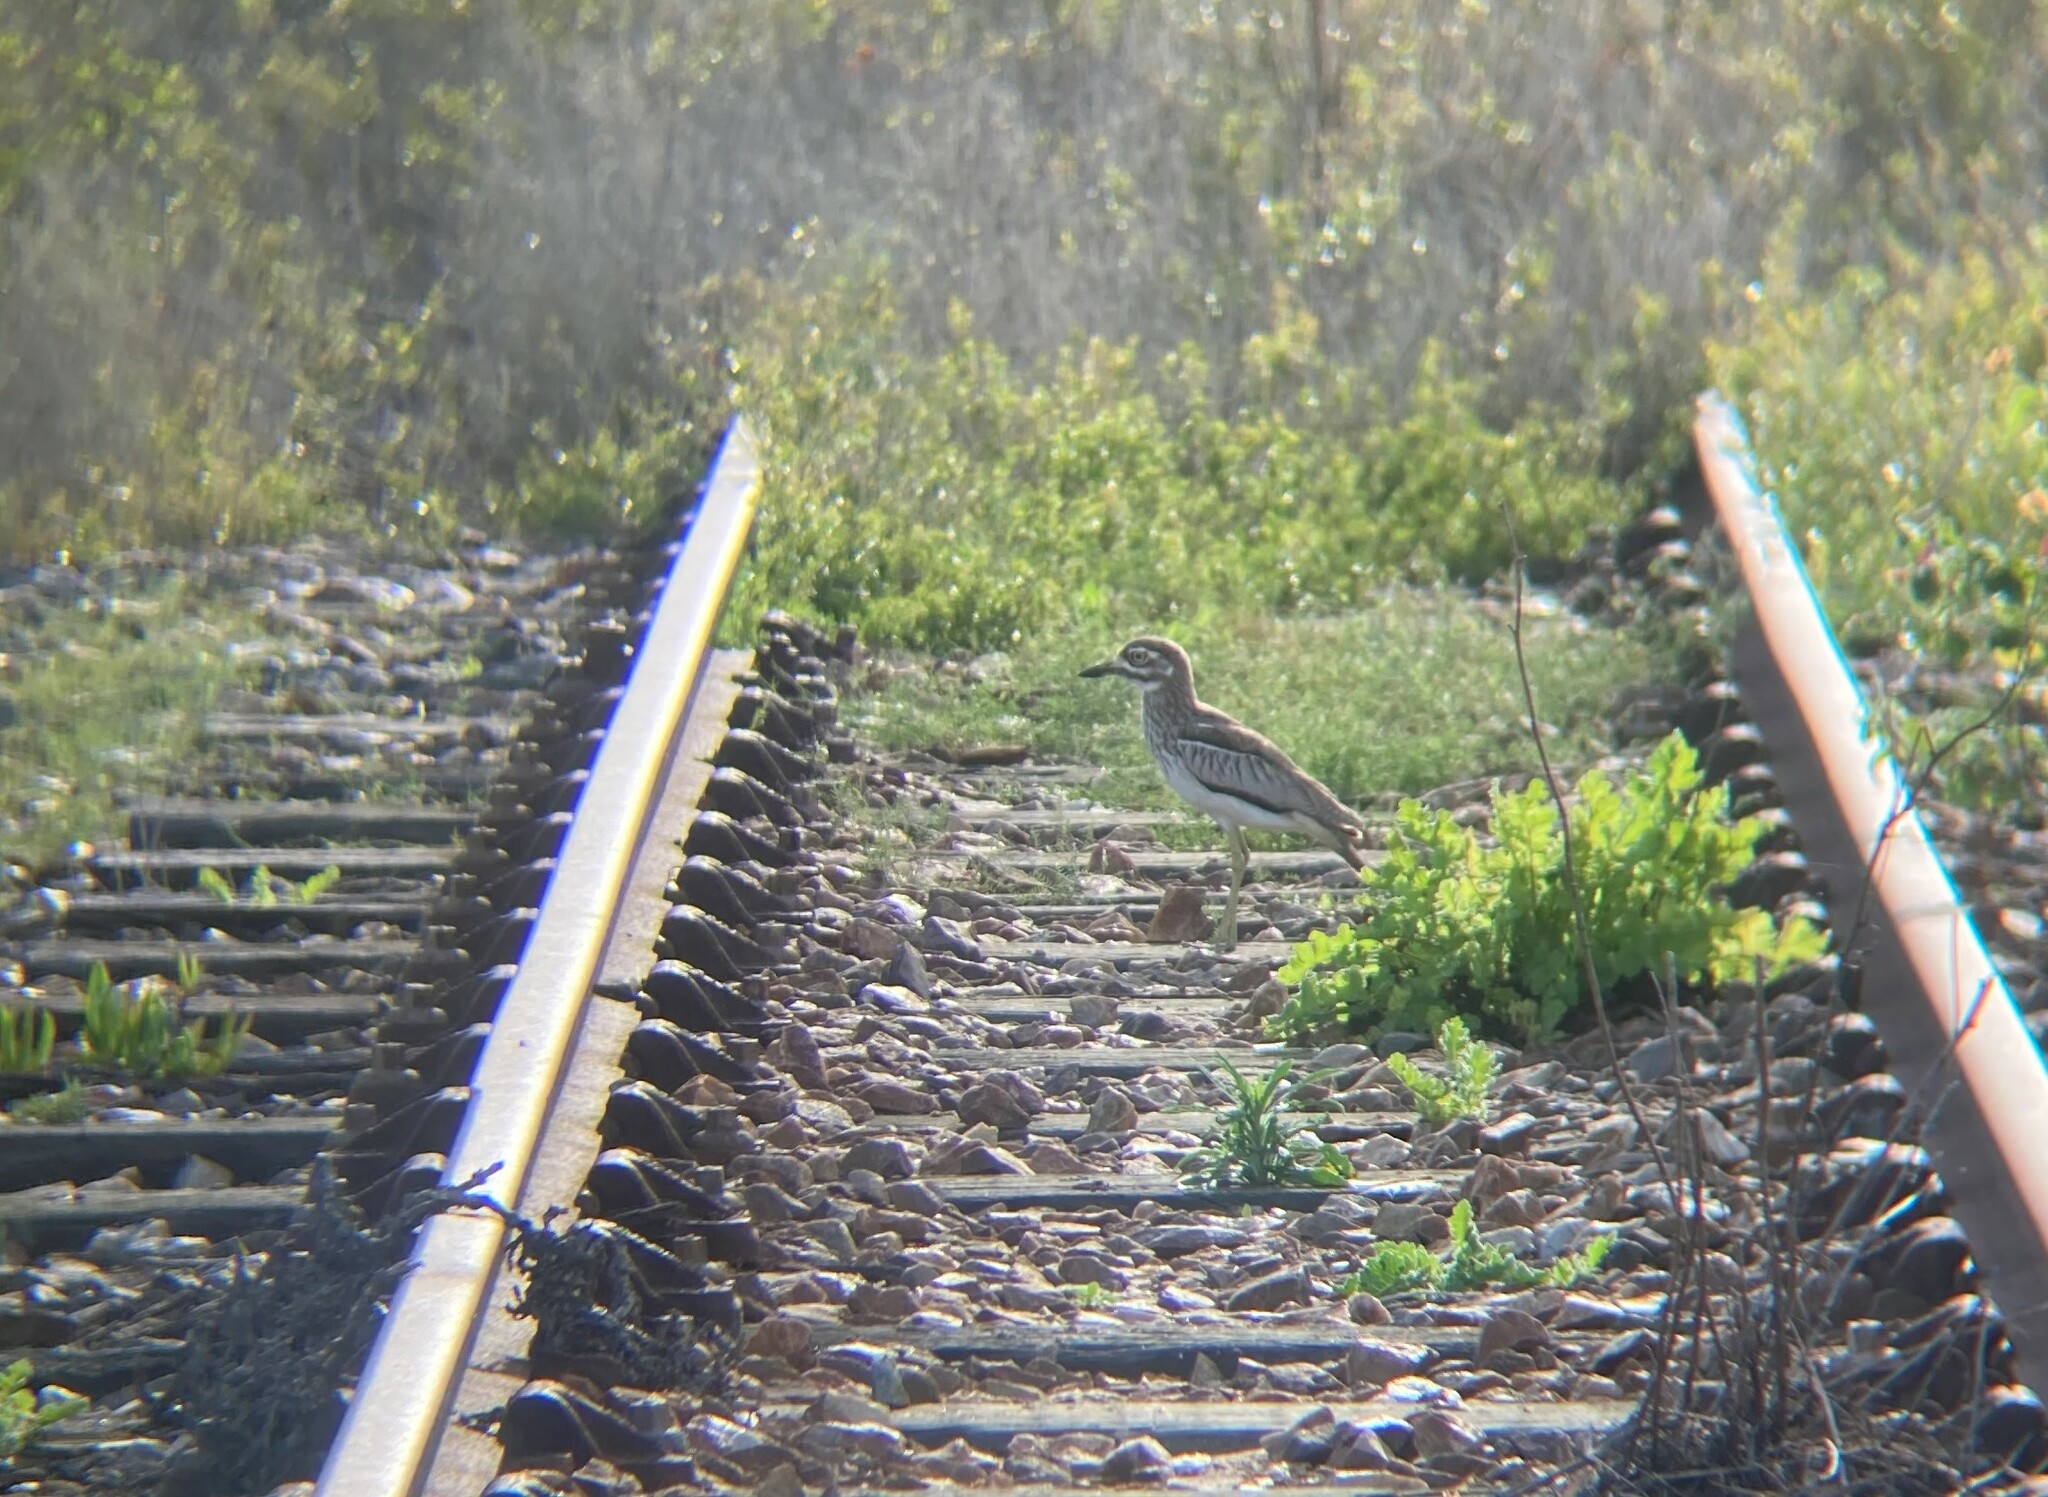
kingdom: Animalia
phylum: Chordata
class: Aves
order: Charadriiformes
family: Burhinidae
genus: Burhinus
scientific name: Burhinus vermiculatus
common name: Water thick-knee
